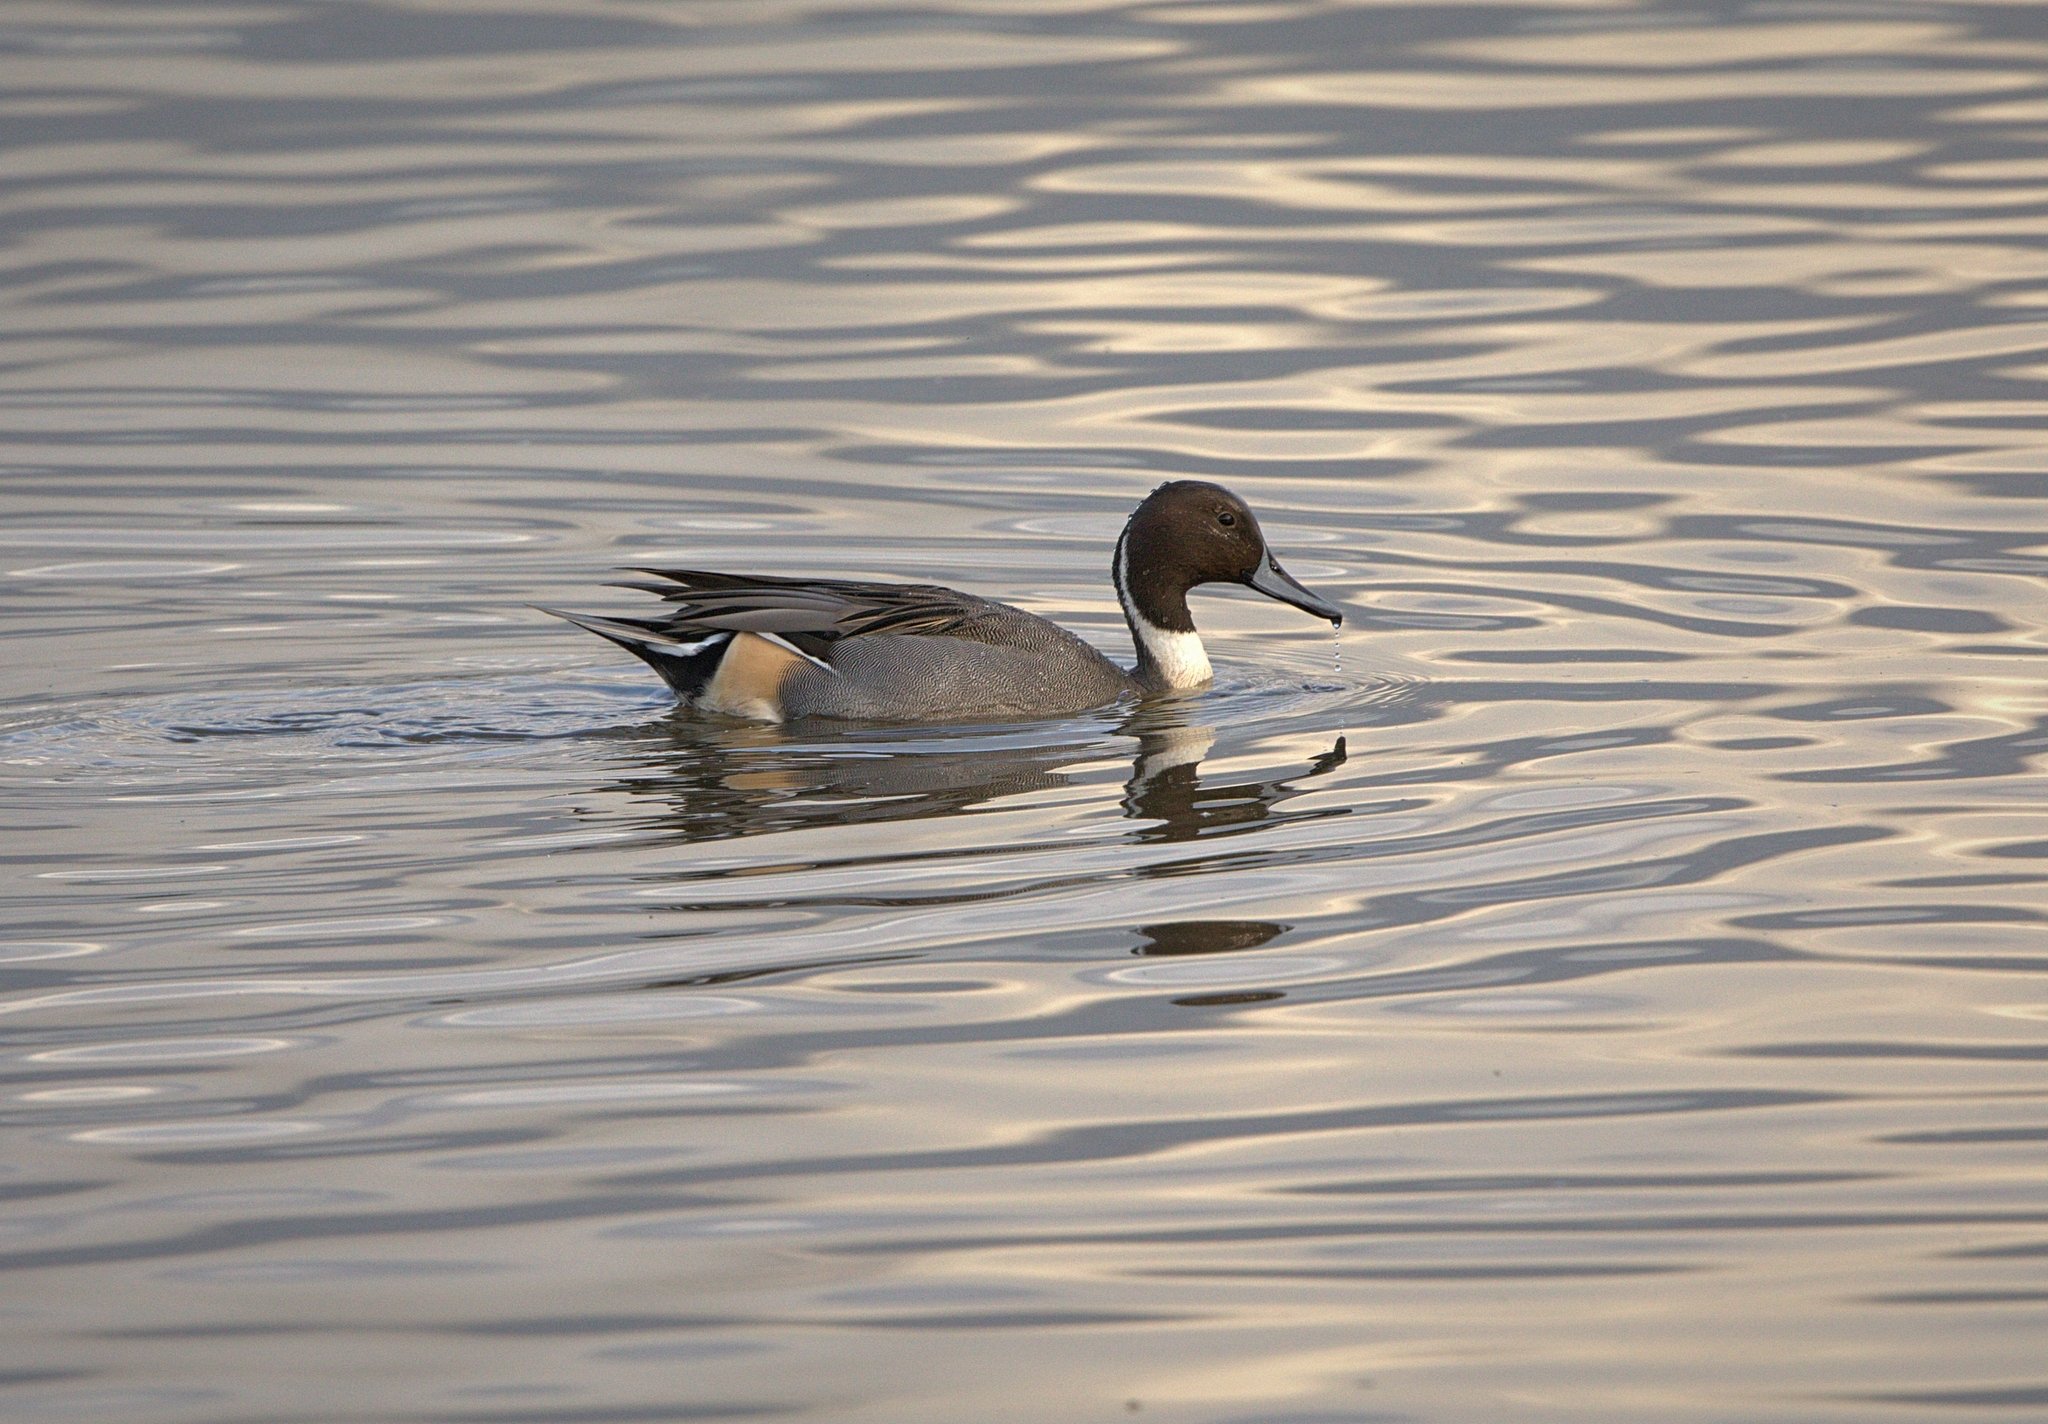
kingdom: Animalia
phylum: Chordata
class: Aves
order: Anseriformes
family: Anatidae
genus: Anas
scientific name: Anas acuta
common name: Northern pintail
